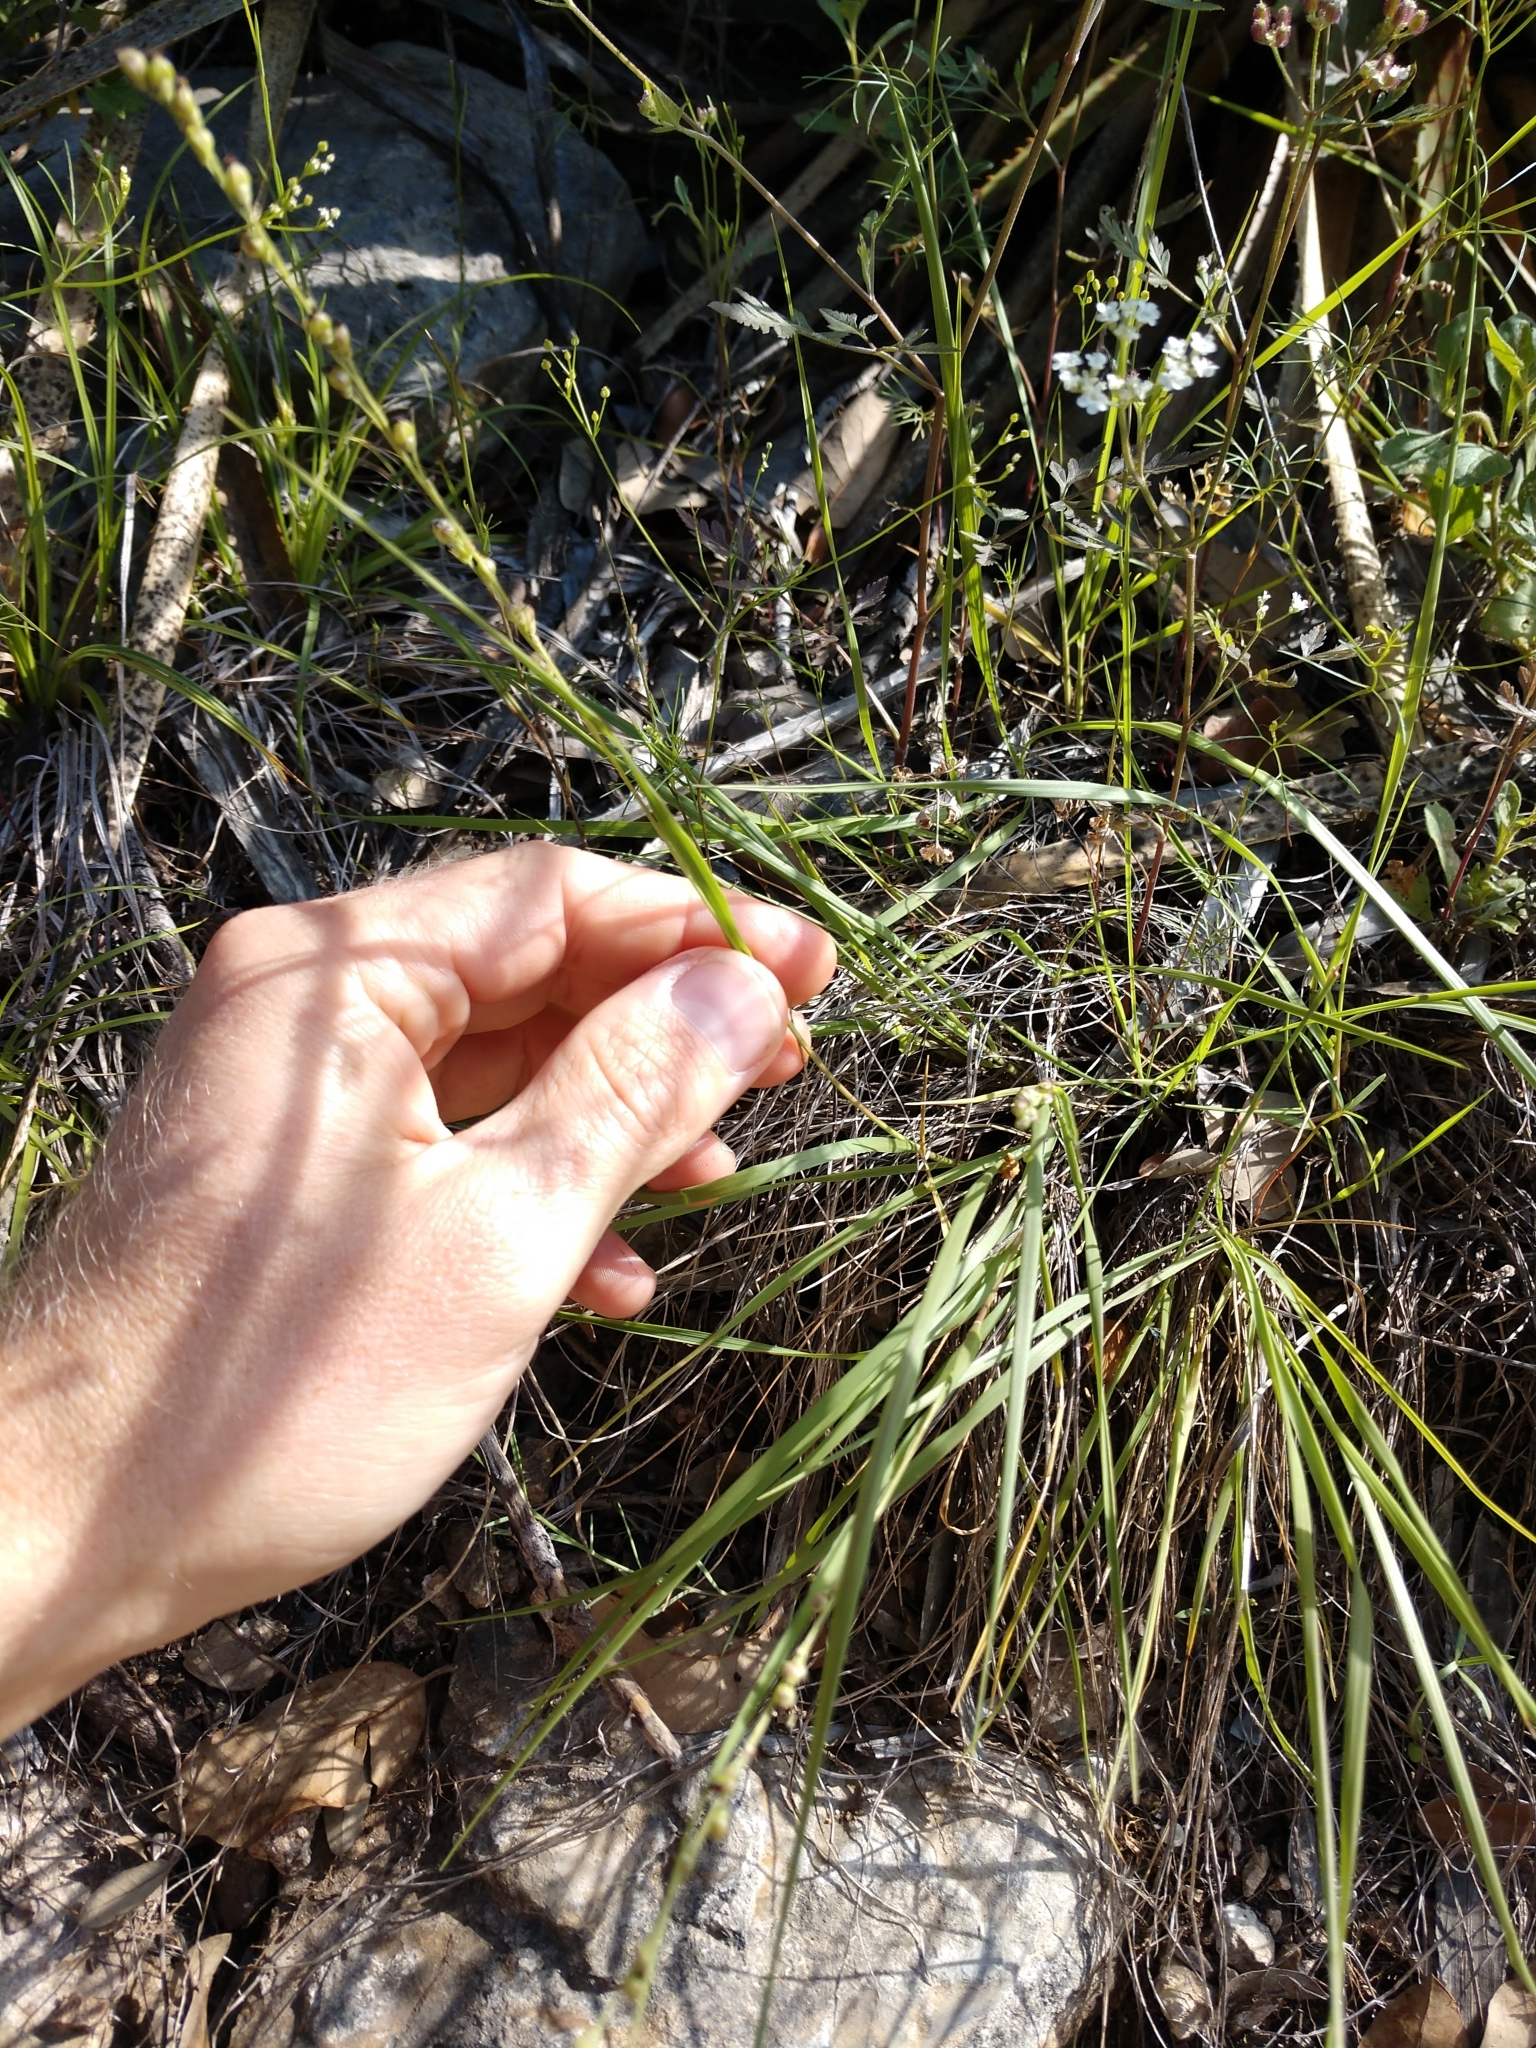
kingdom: Plantae
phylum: Tracheophyta
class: Liliopsida
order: Poales
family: Poaceae
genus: Setaria
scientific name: Setaria reverchonii
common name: Reverchon's bristle grass
